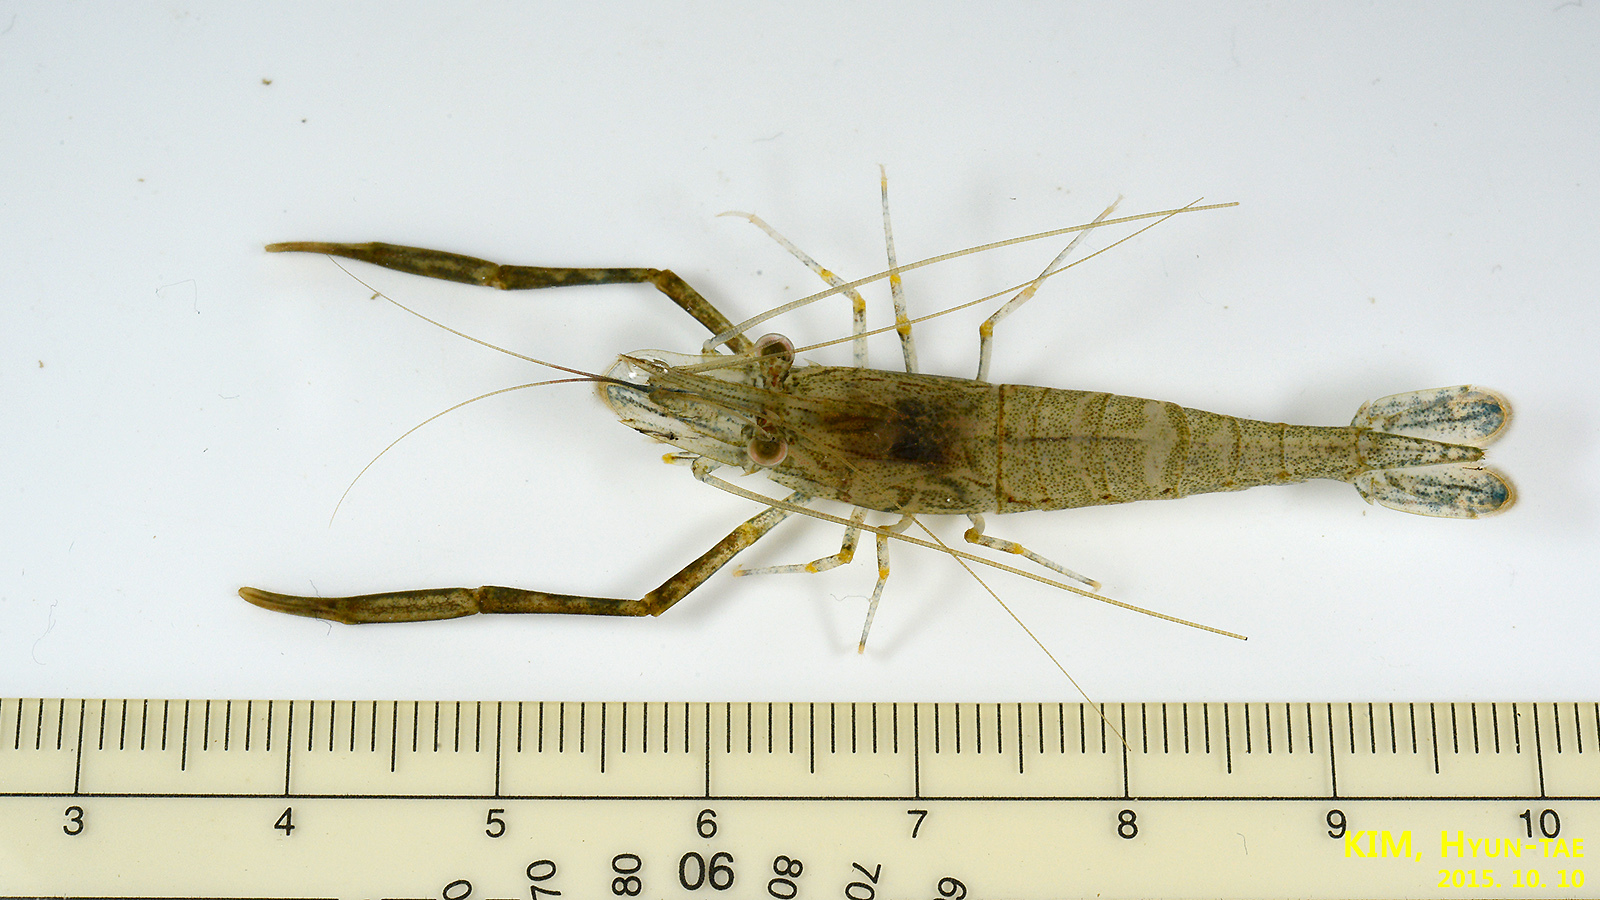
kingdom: Animalia
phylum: Arthropoda
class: Malacostraca
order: Decapoda
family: Palaemonidae
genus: Macrobrachium
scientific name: Macrobrachium nipponense
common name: East asian river prawn
